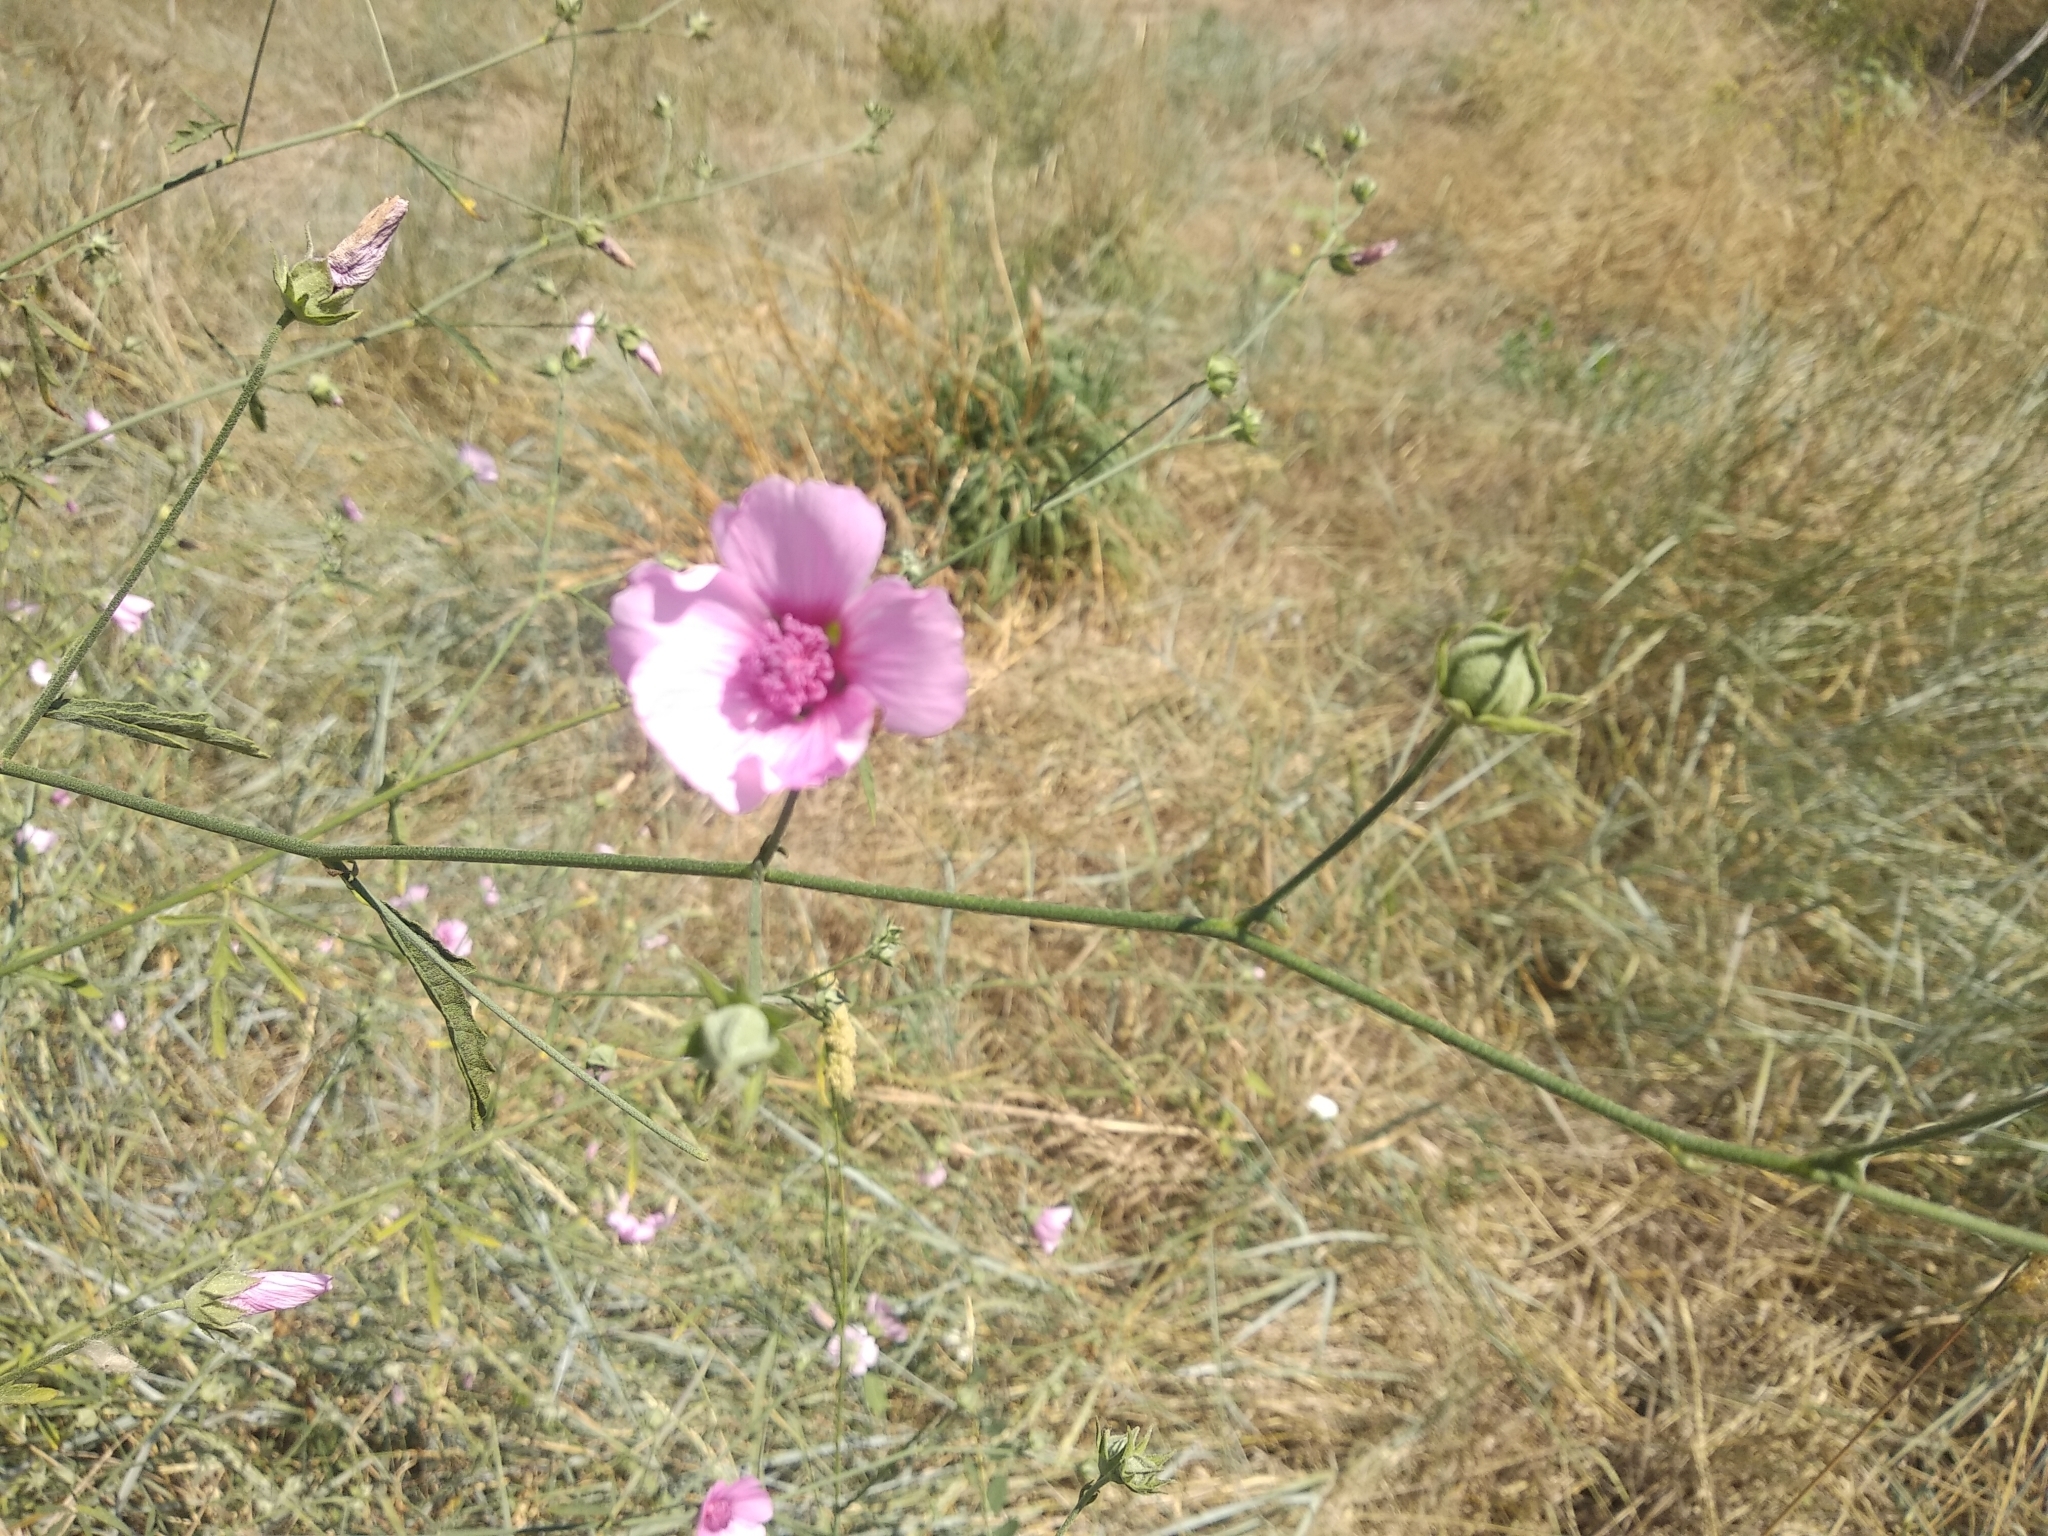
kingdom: Plantae
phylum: Tracheophyta
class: Magnoliopsida
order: Malvales
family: Malvaceae
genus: Althaea
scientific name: Althaea cannabina
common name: Palm-leaf marshmallow
